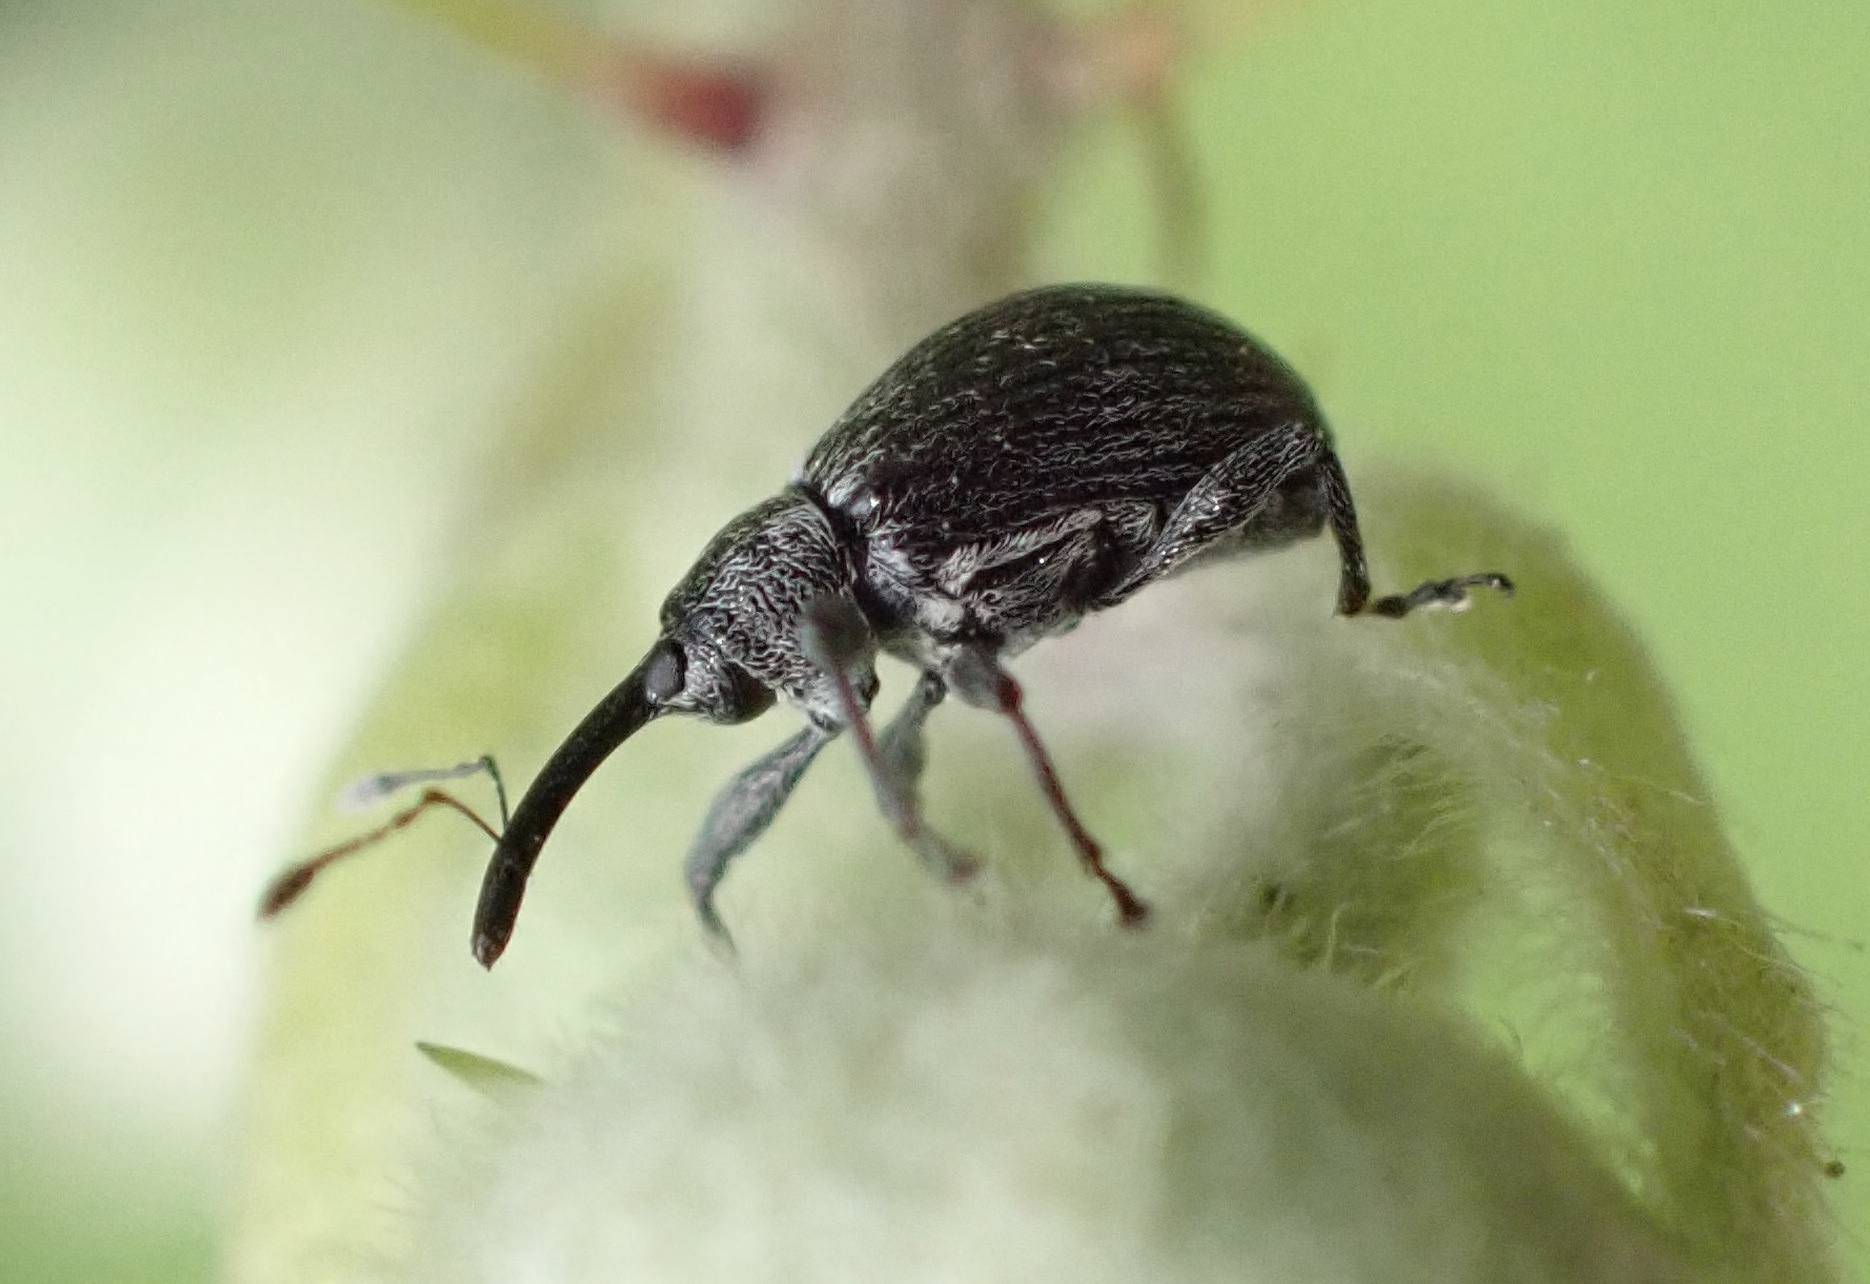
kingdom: Animalia
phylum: Arthropoda
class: Insecta
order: Coleoptera
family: Curculionidae
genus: Anthonomus
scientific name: Anthonomus rubi
